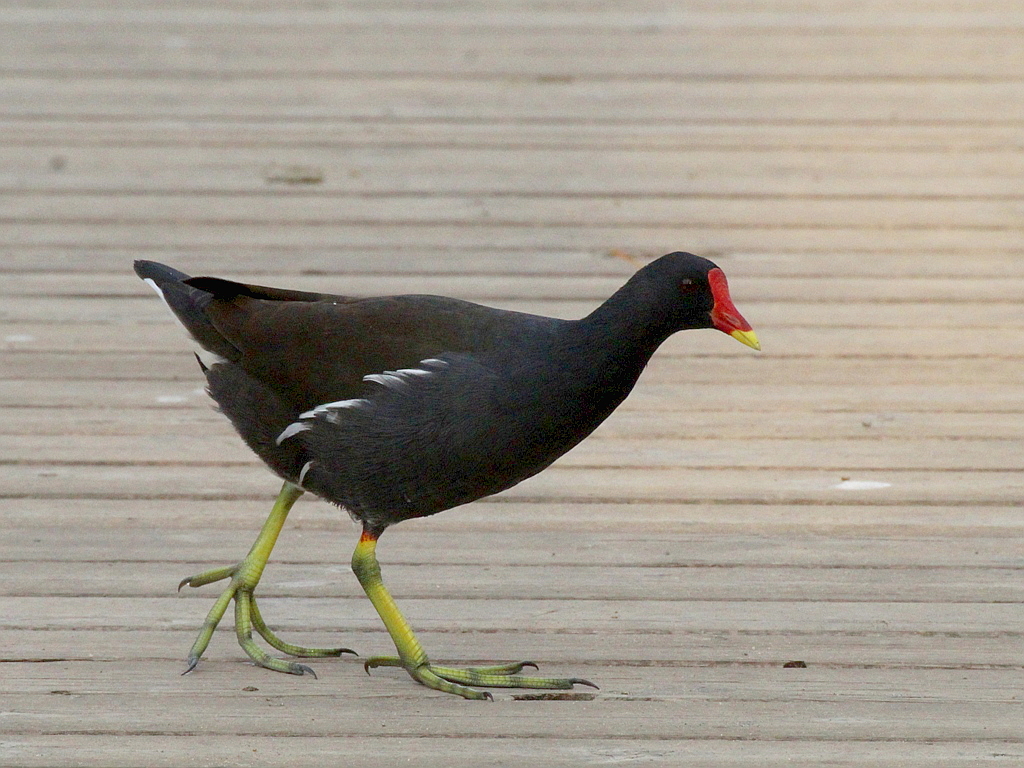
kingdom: Animalia
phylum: Chordata
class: Aves
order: Gruiformes
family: Rallidae
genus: Gallinula
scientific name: Gallinula chloropus
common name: Common moorhen
